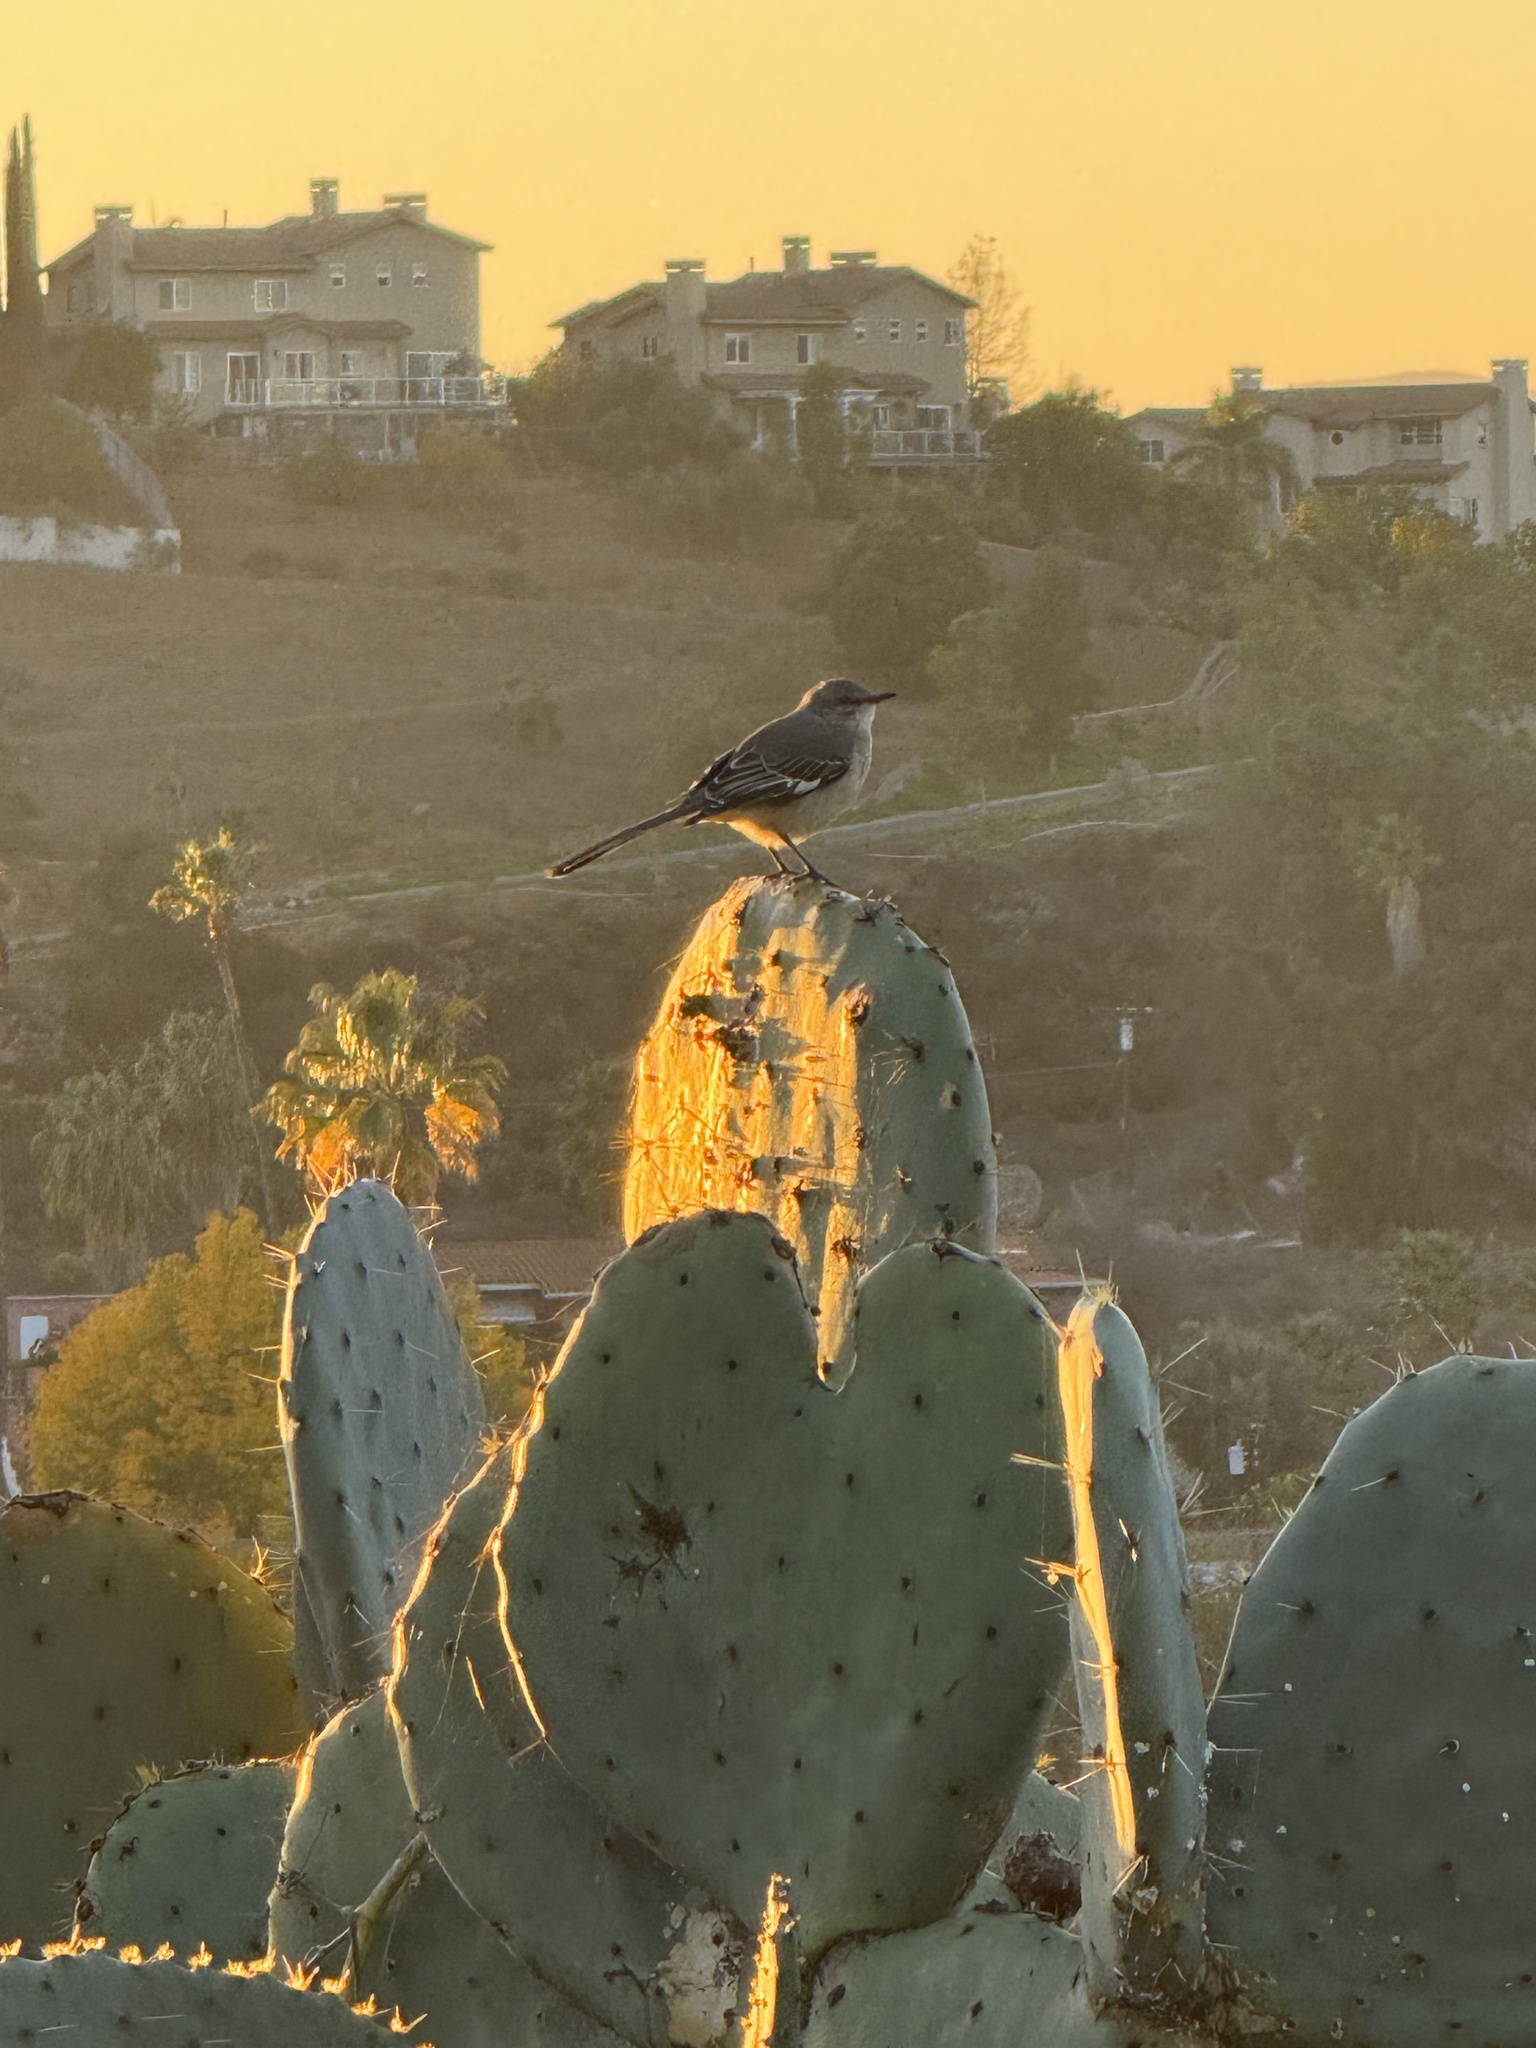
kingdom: Animalia
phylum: Chordata
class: Aves
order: Passeriformes
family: Mimidae
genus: Mimus
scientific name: Mimus polyglottos
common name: Northern mockingbird
